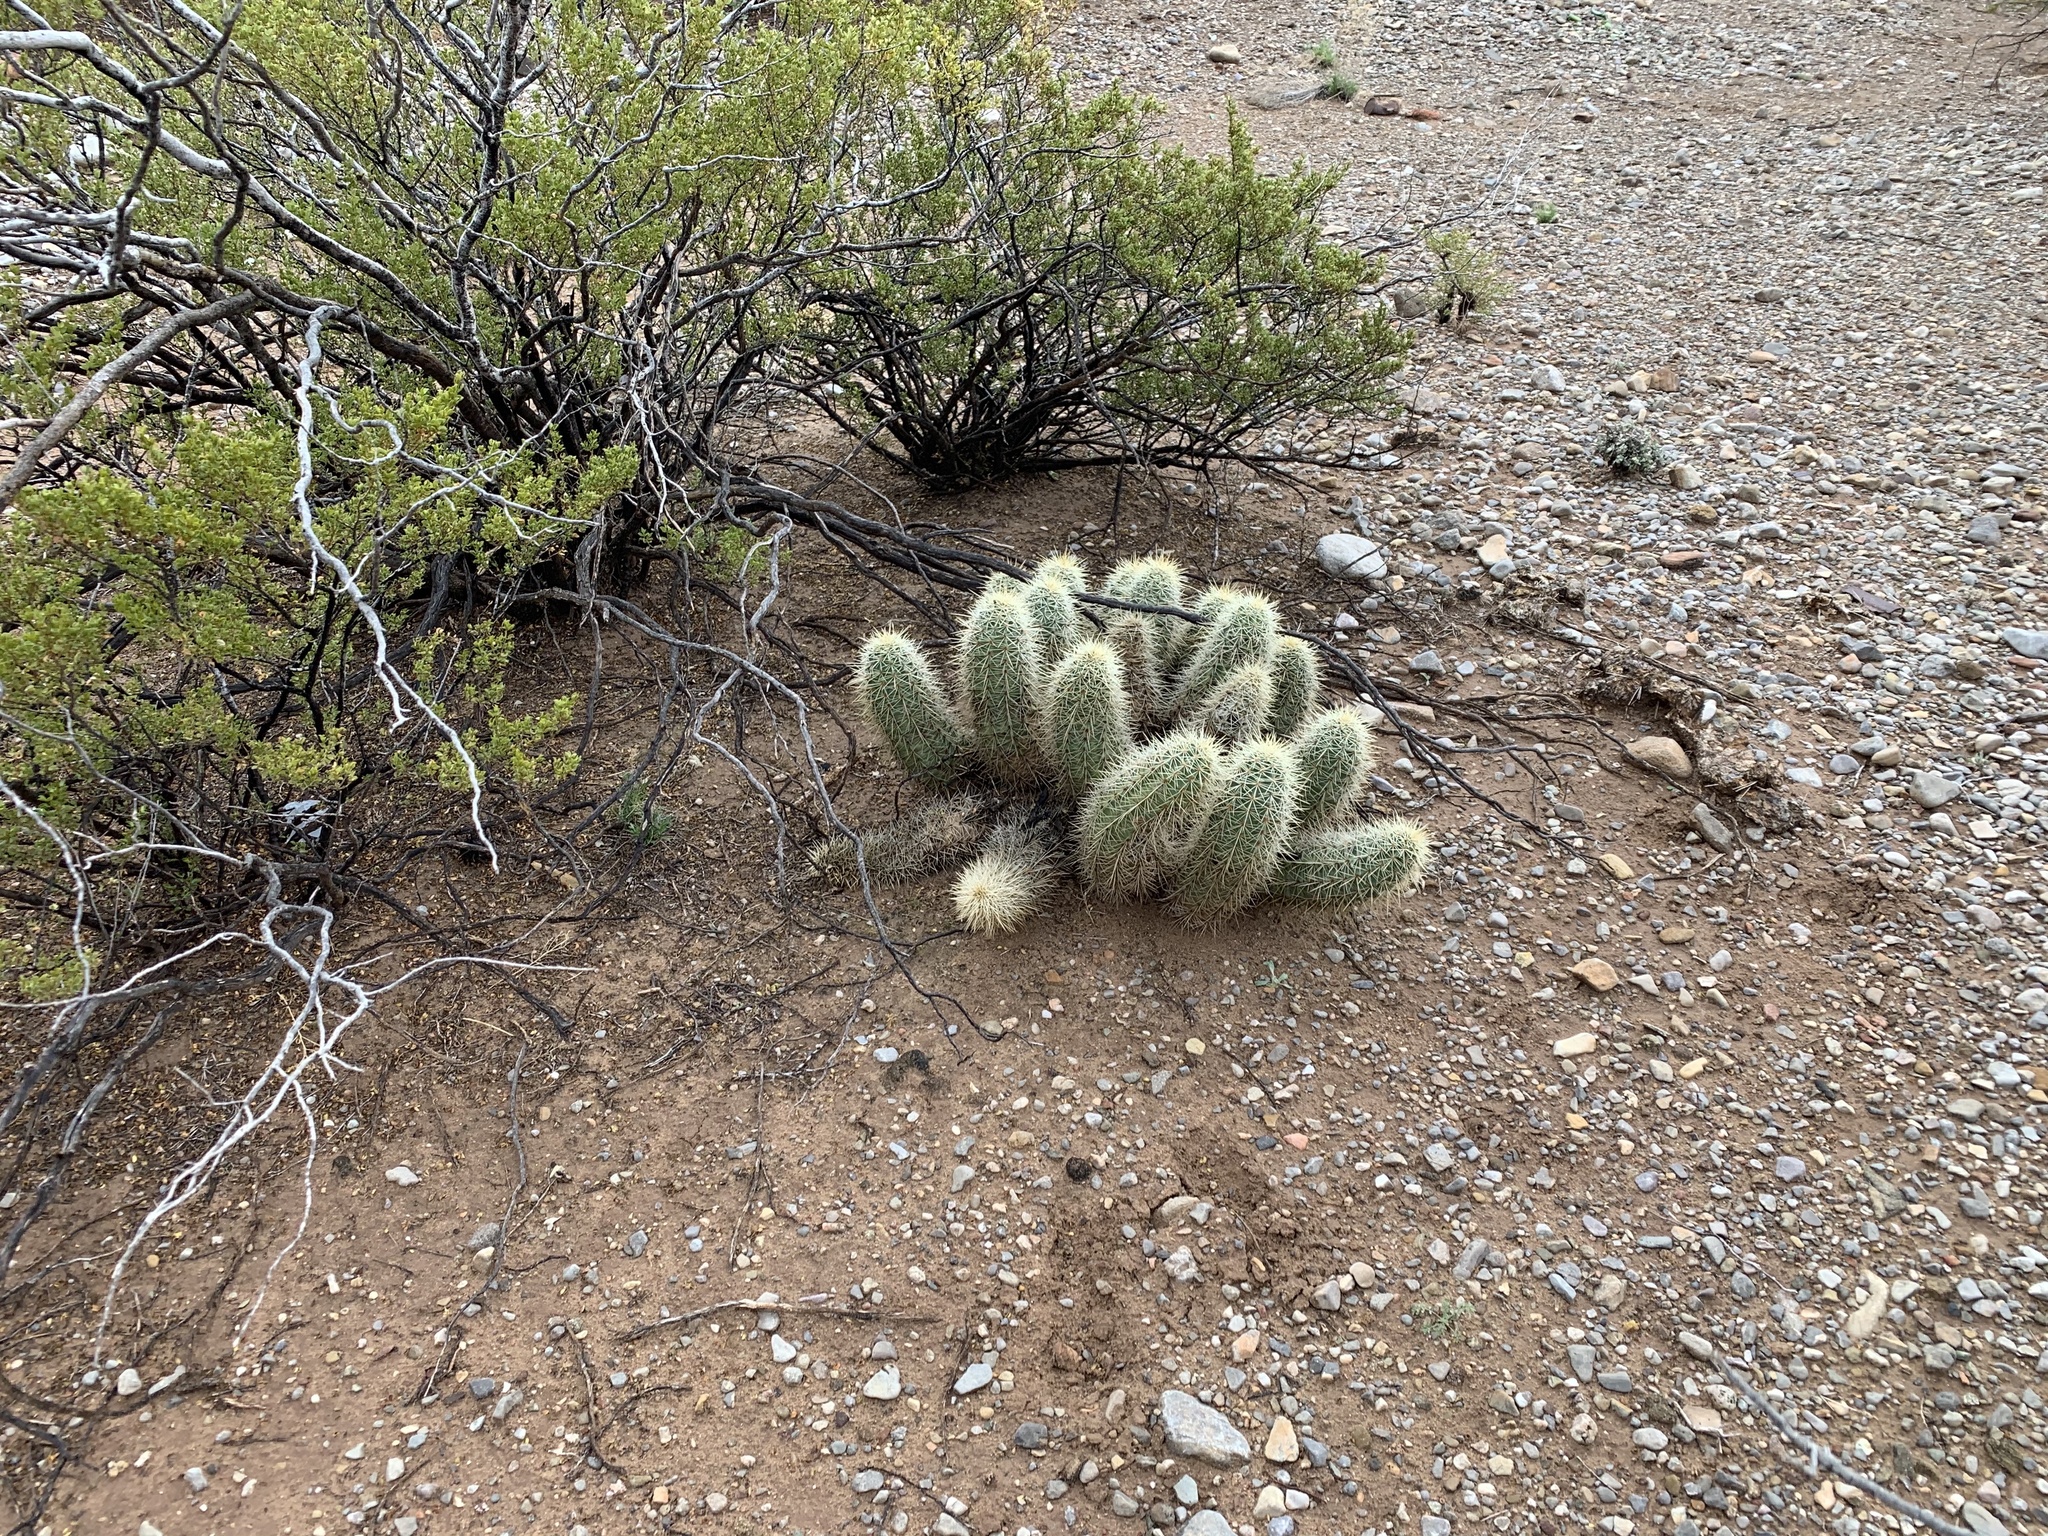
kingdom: Plantae
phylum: Tracheophyta
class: Magnoliopsida
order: Caryophyllales
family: Cactaceae
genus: Echinocereus
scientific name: Echinocereus coccineus
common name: Scarlet hedgehog cactus
